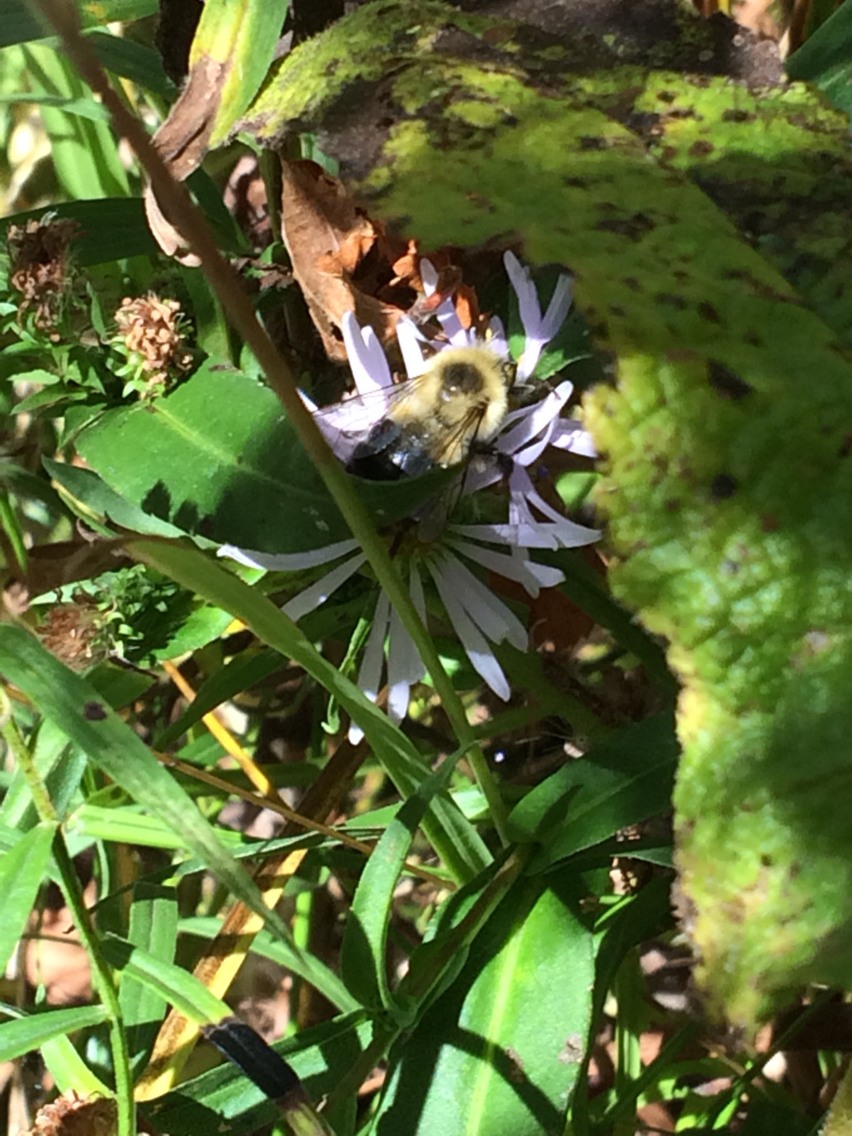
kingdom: Animalia
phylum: Arthropoda
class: Insecta
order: Hymenoptera
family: Apidae
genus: Bombus
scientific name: Bombus impatiens
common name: Common eastern bumble bee
